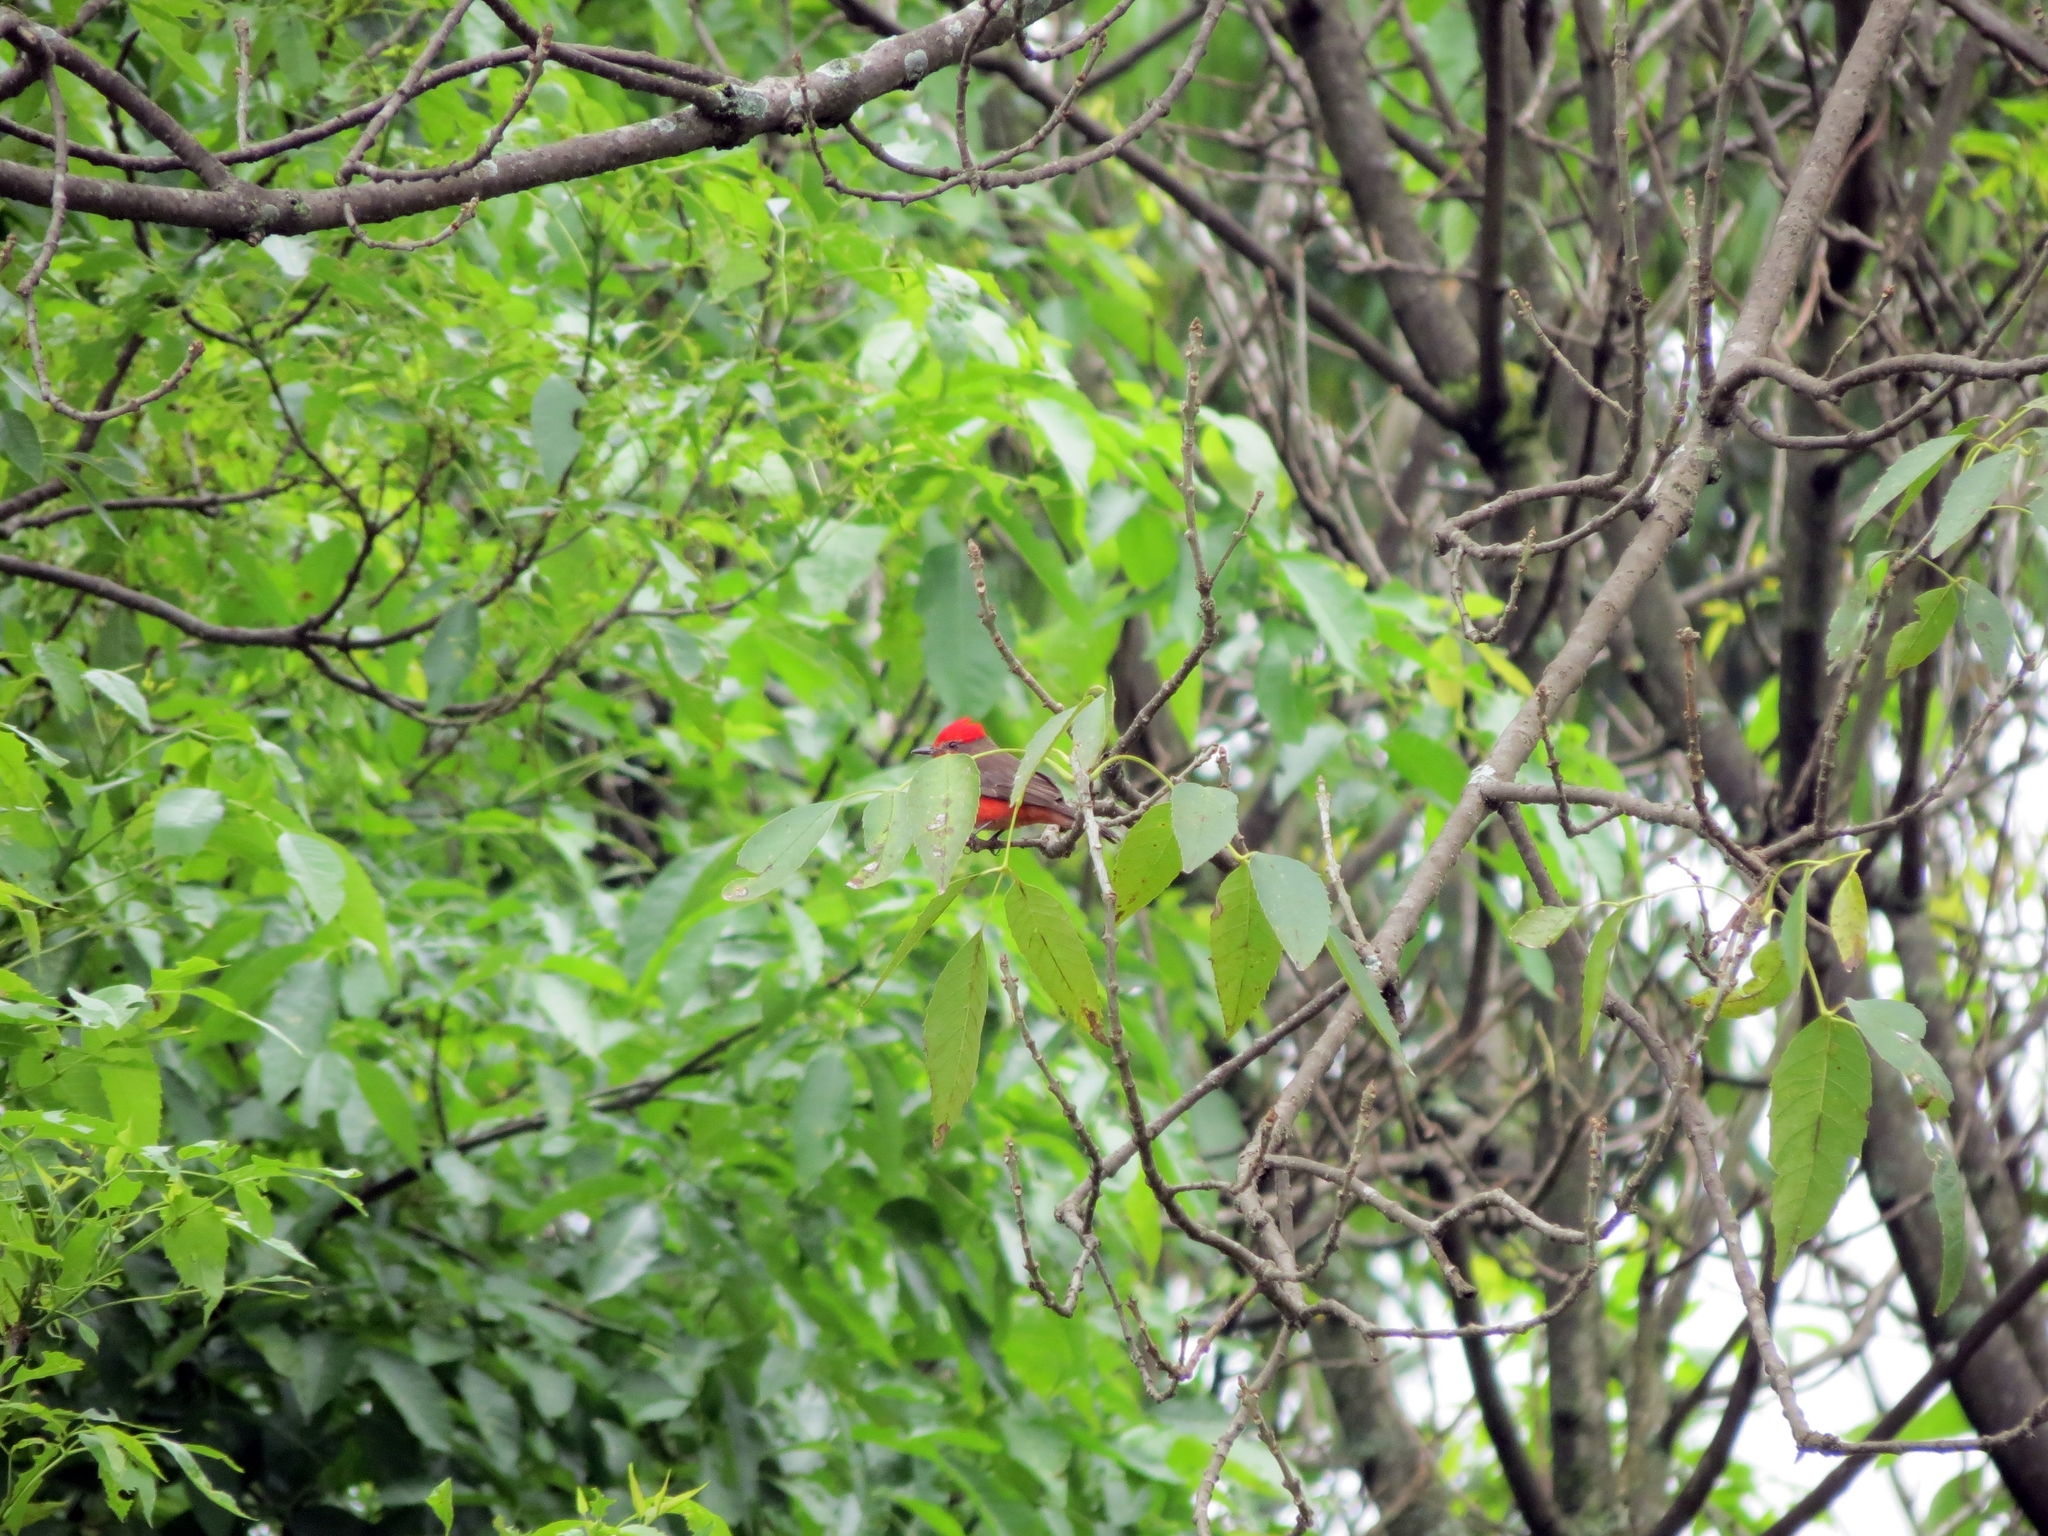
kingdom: Animalia
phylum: Chordata
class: Aves
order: Passeriformes
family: Tyrannidae
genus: Pyrocephalus
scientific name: Pyrocephalus rubinus
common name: Vermilion flycatcher
